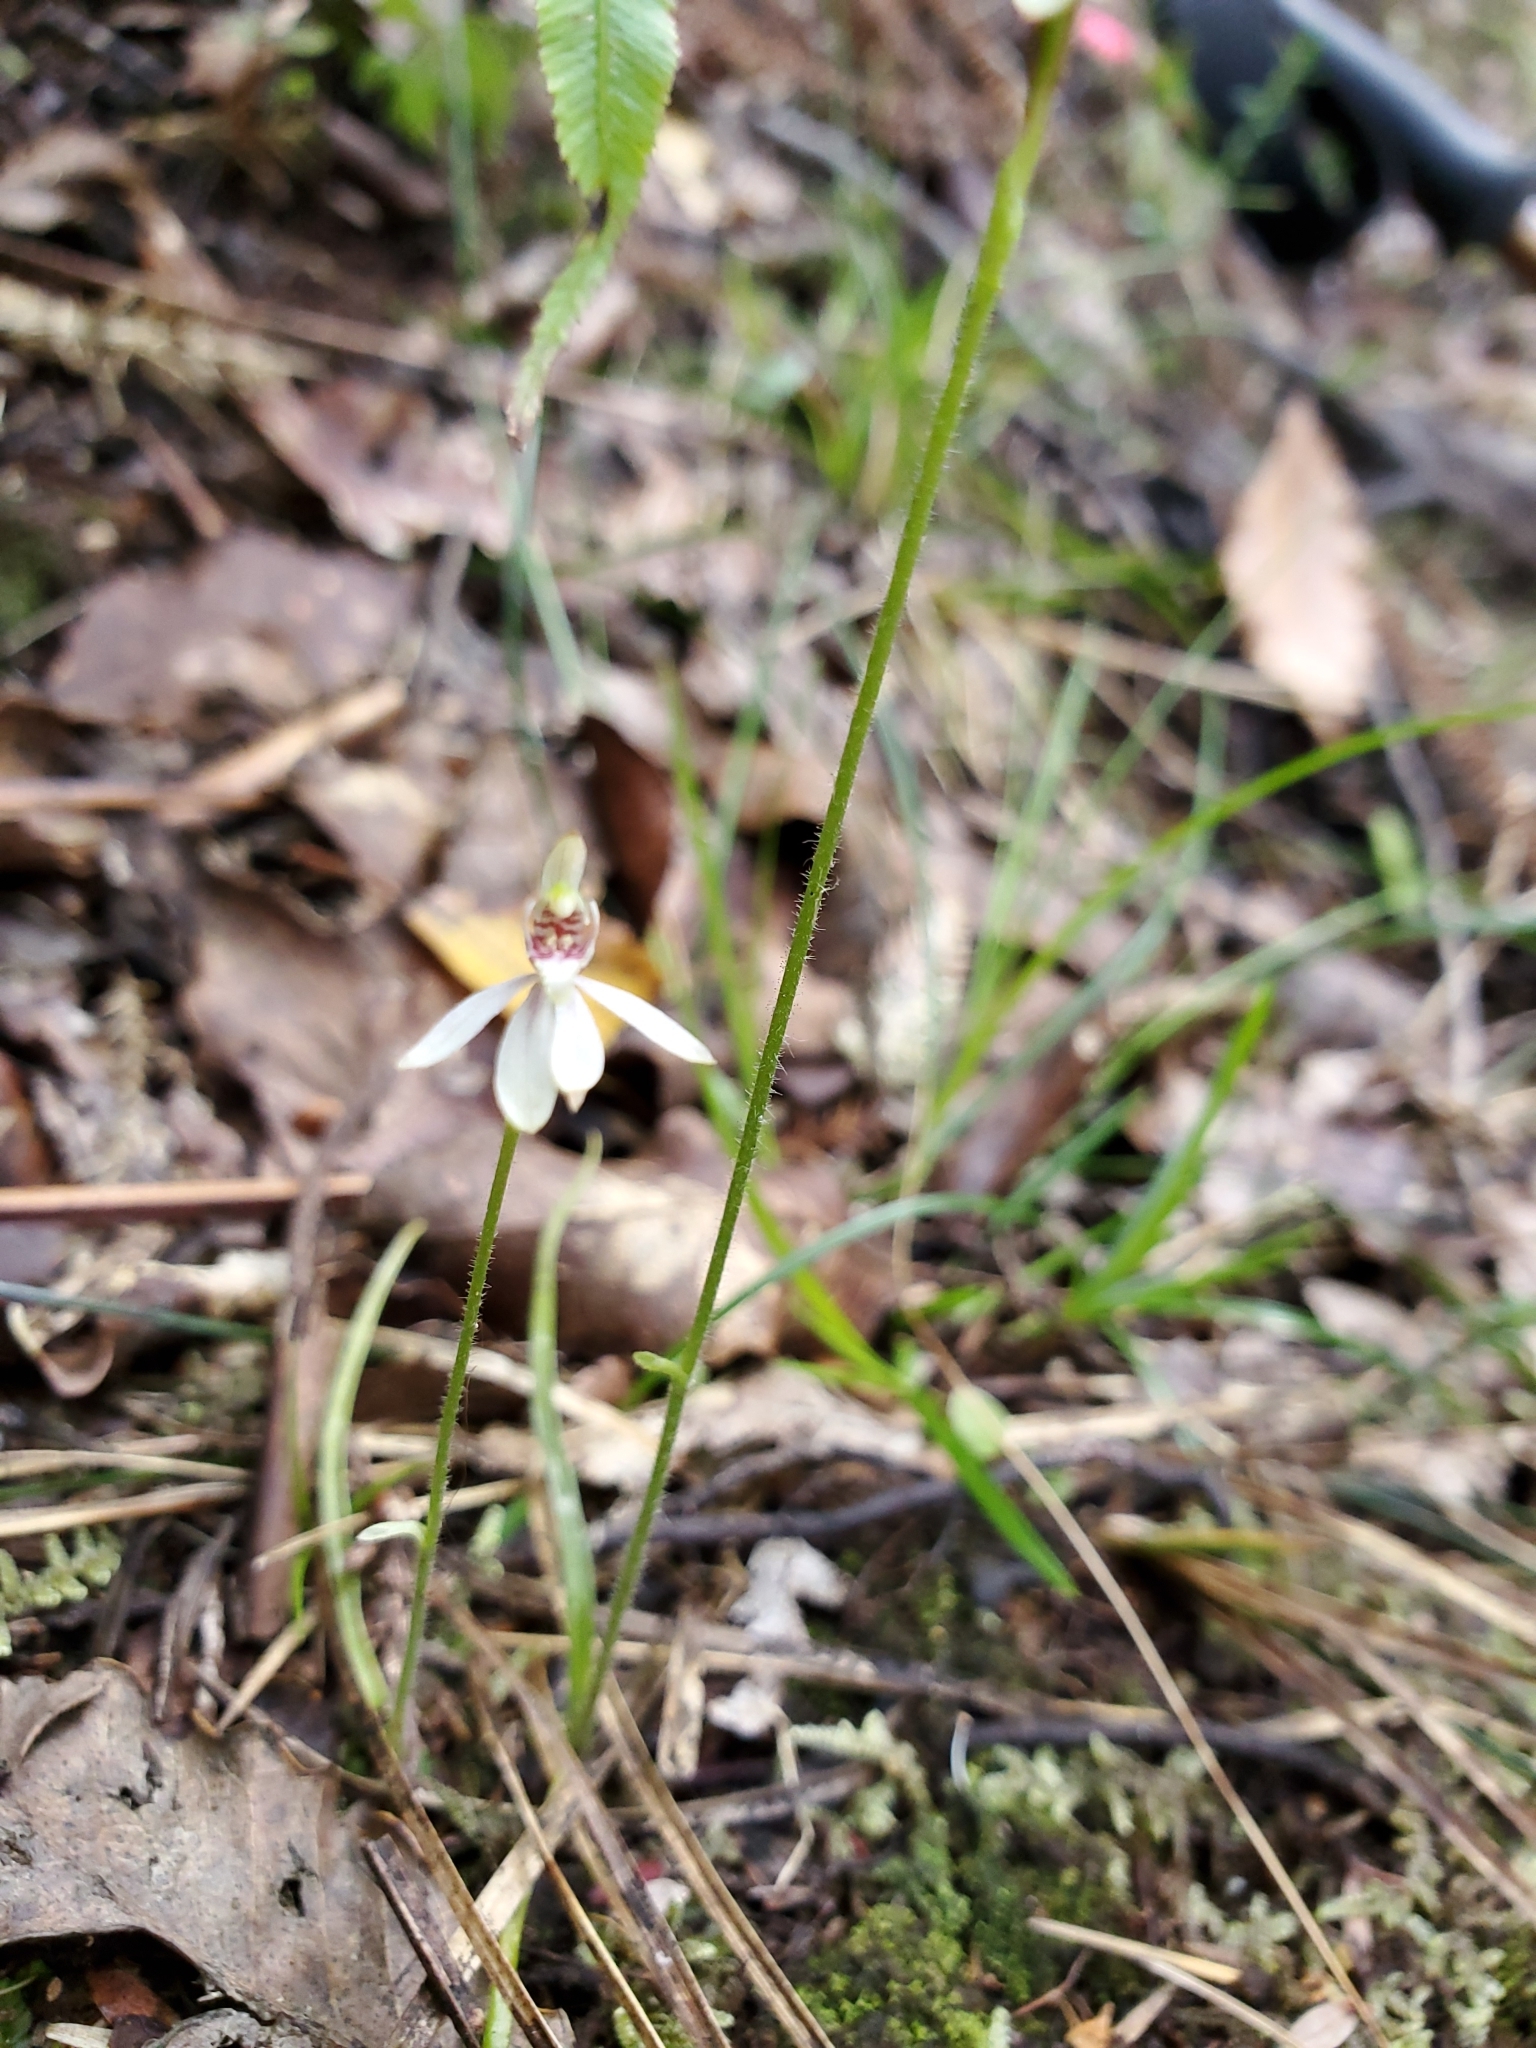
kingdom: Plantae
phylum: Tracheophyta
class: Liliopsida
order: Asparagales
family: Orchidaceae
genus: Caladenia
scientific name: Caladenia chlorostyla
